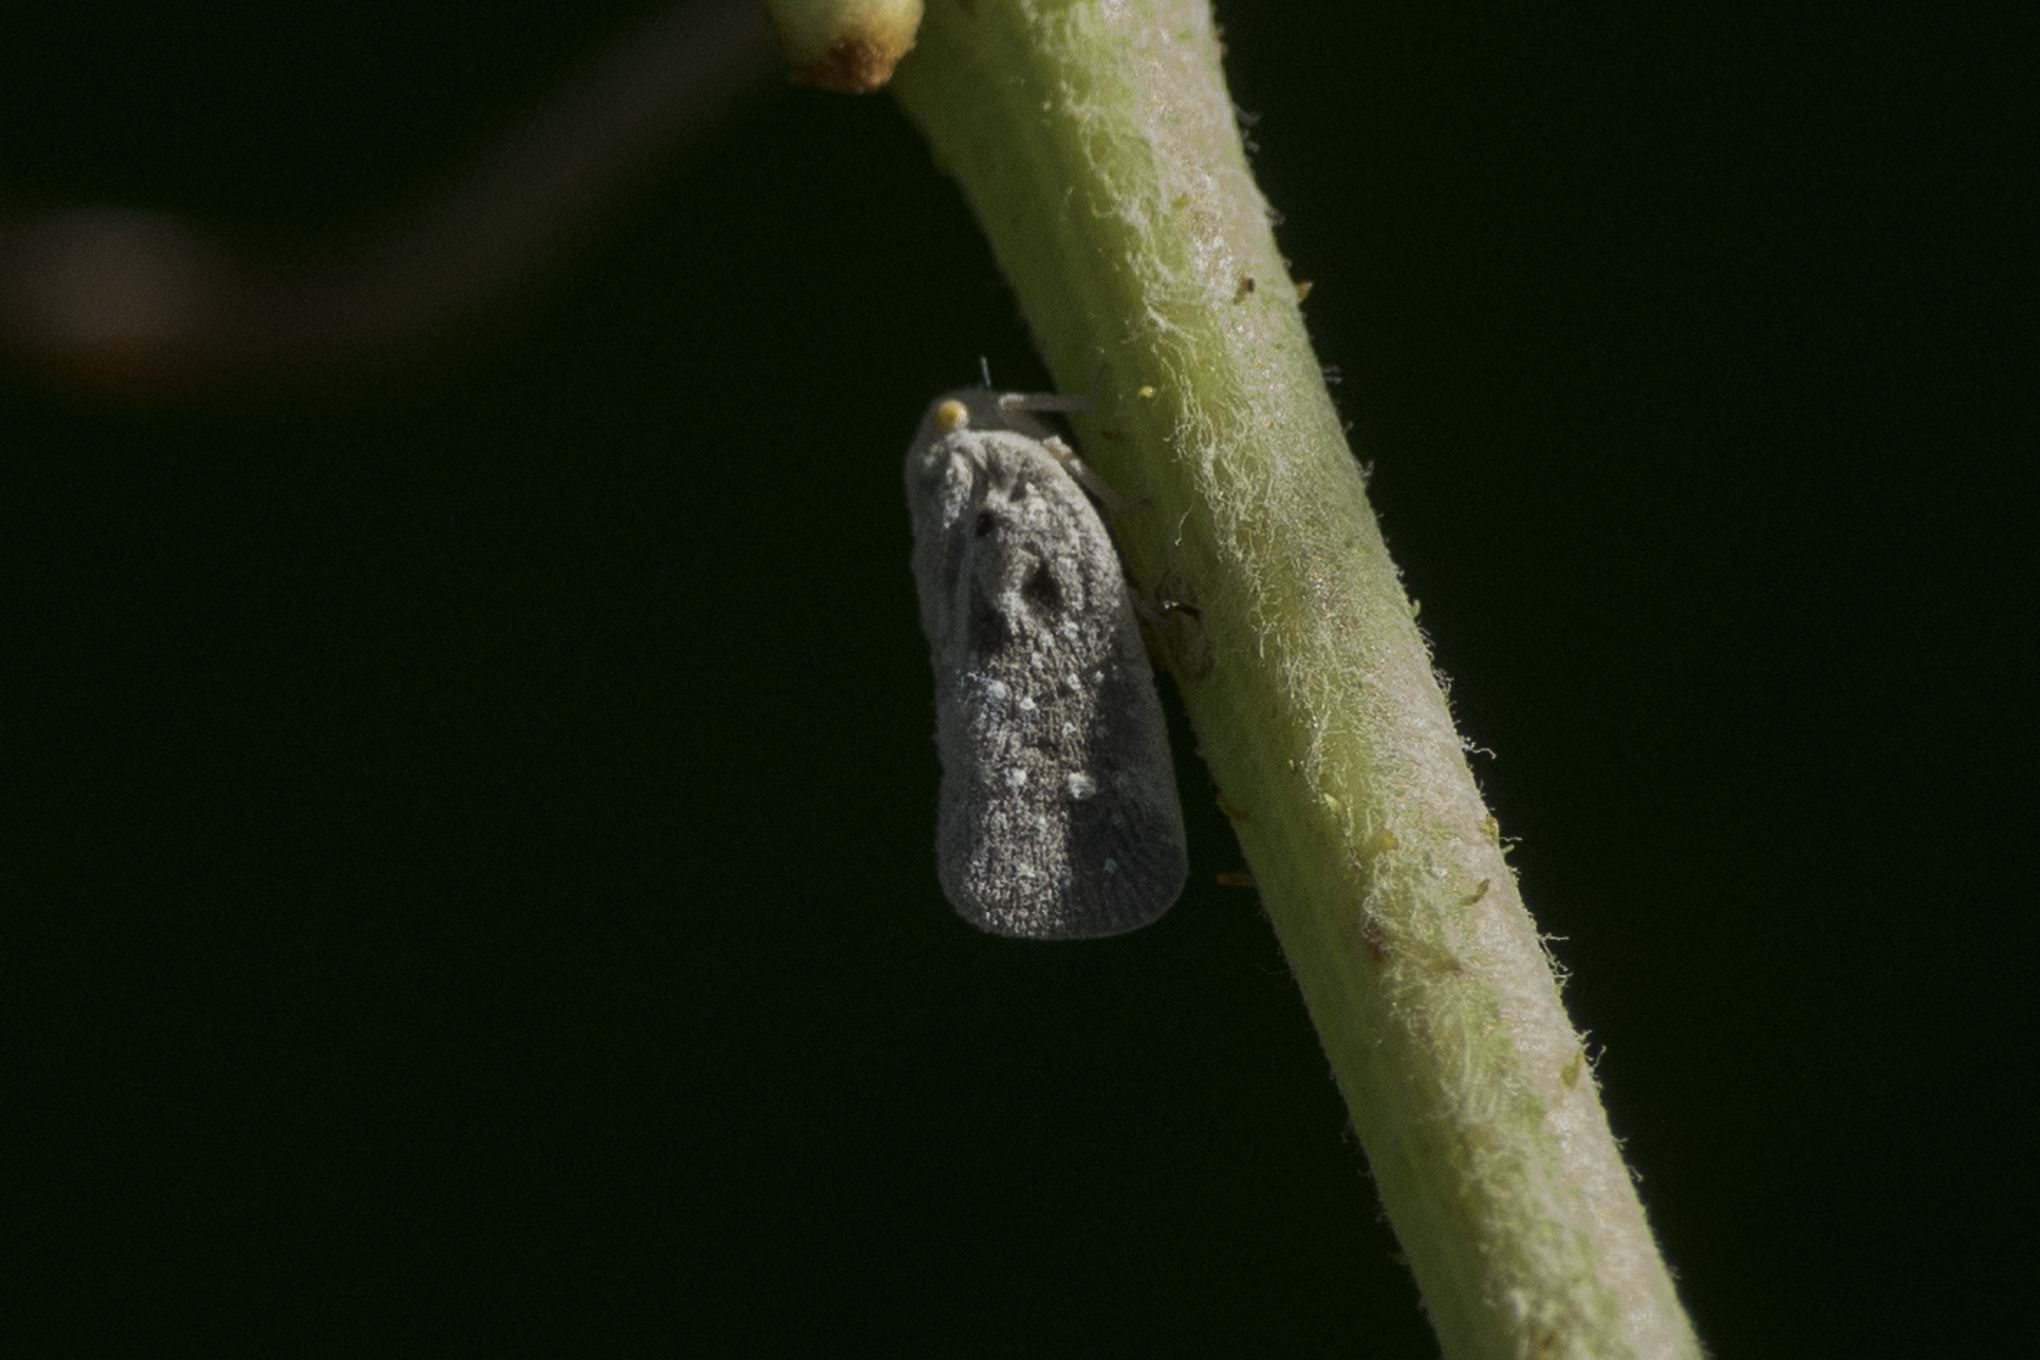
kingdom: Animalia
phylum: Arthropoda
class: Insecta
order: Hemiptera
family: Flatidae
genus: Metcalfa
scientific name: Metcalfa pruinosa
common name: Citrus flatid planthopper
